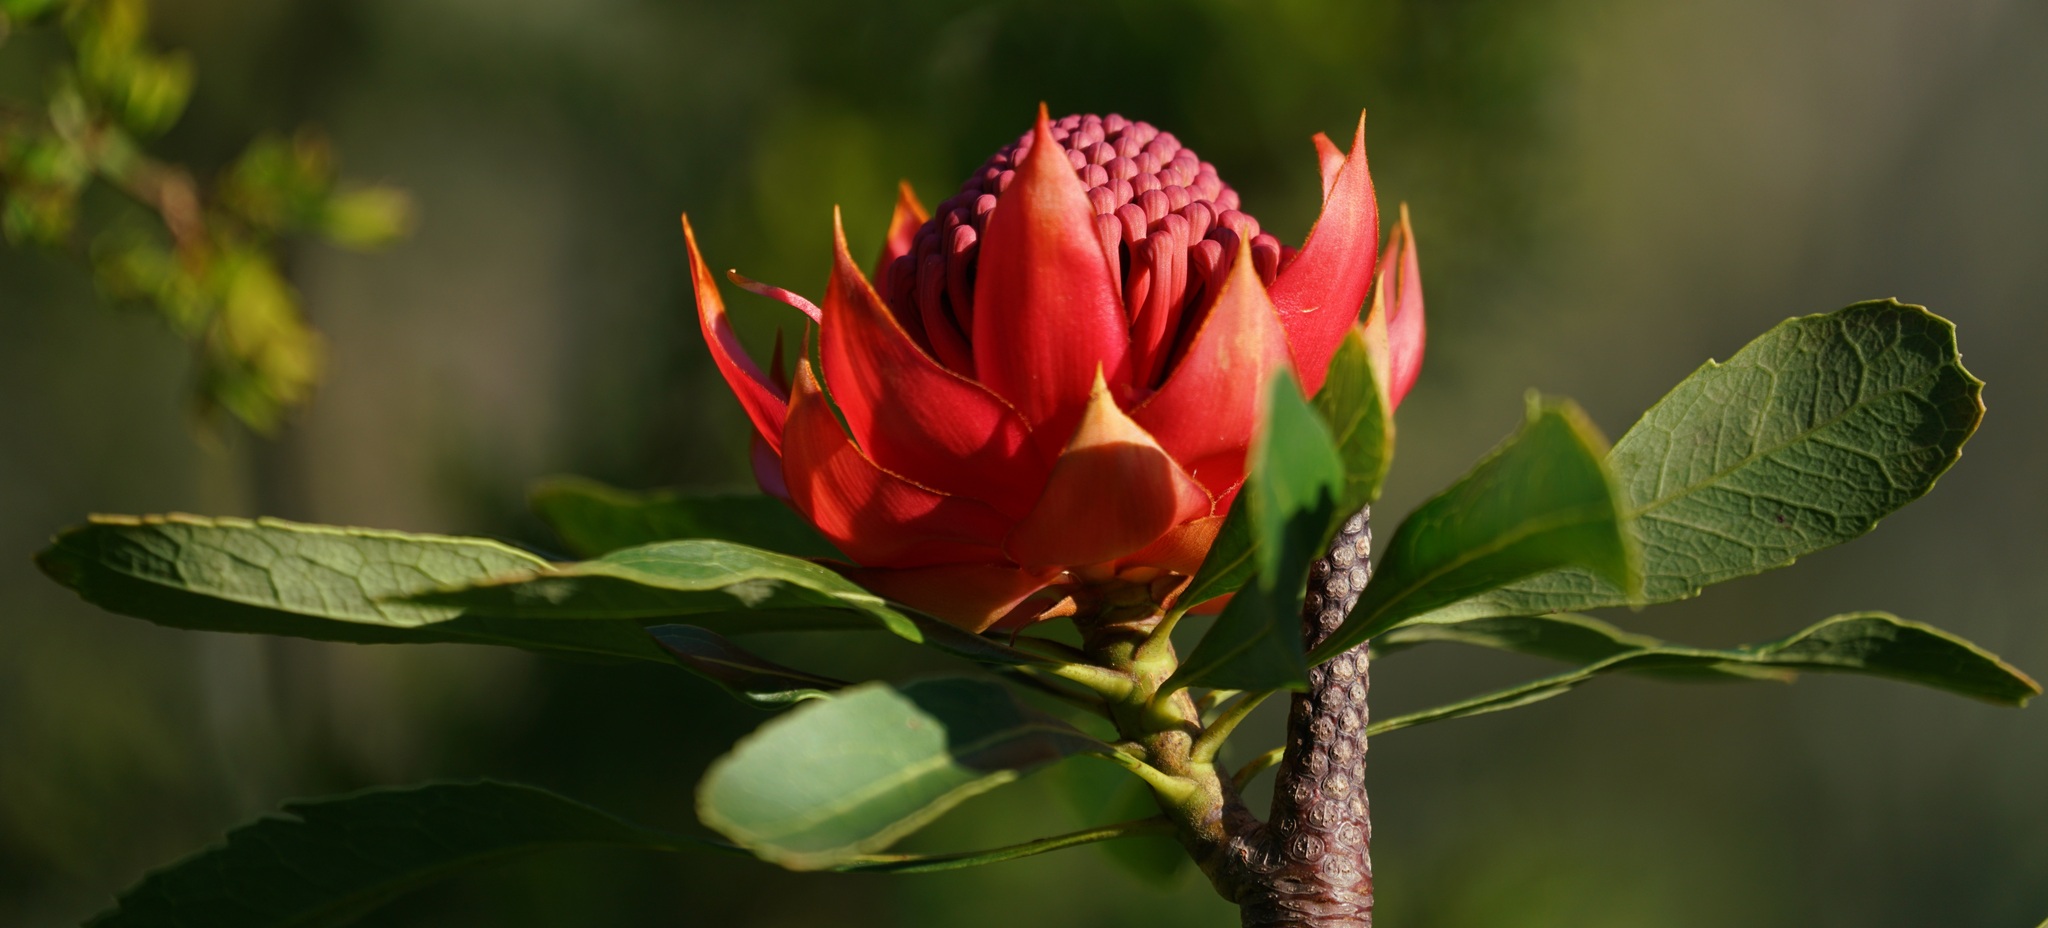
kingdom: Plantae
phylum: Tracheophyta
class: Magnoliopsida
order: Proteales
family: Proteaceae
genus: Telopea
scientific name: Telopea speciosissima
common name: New south wales waratah
